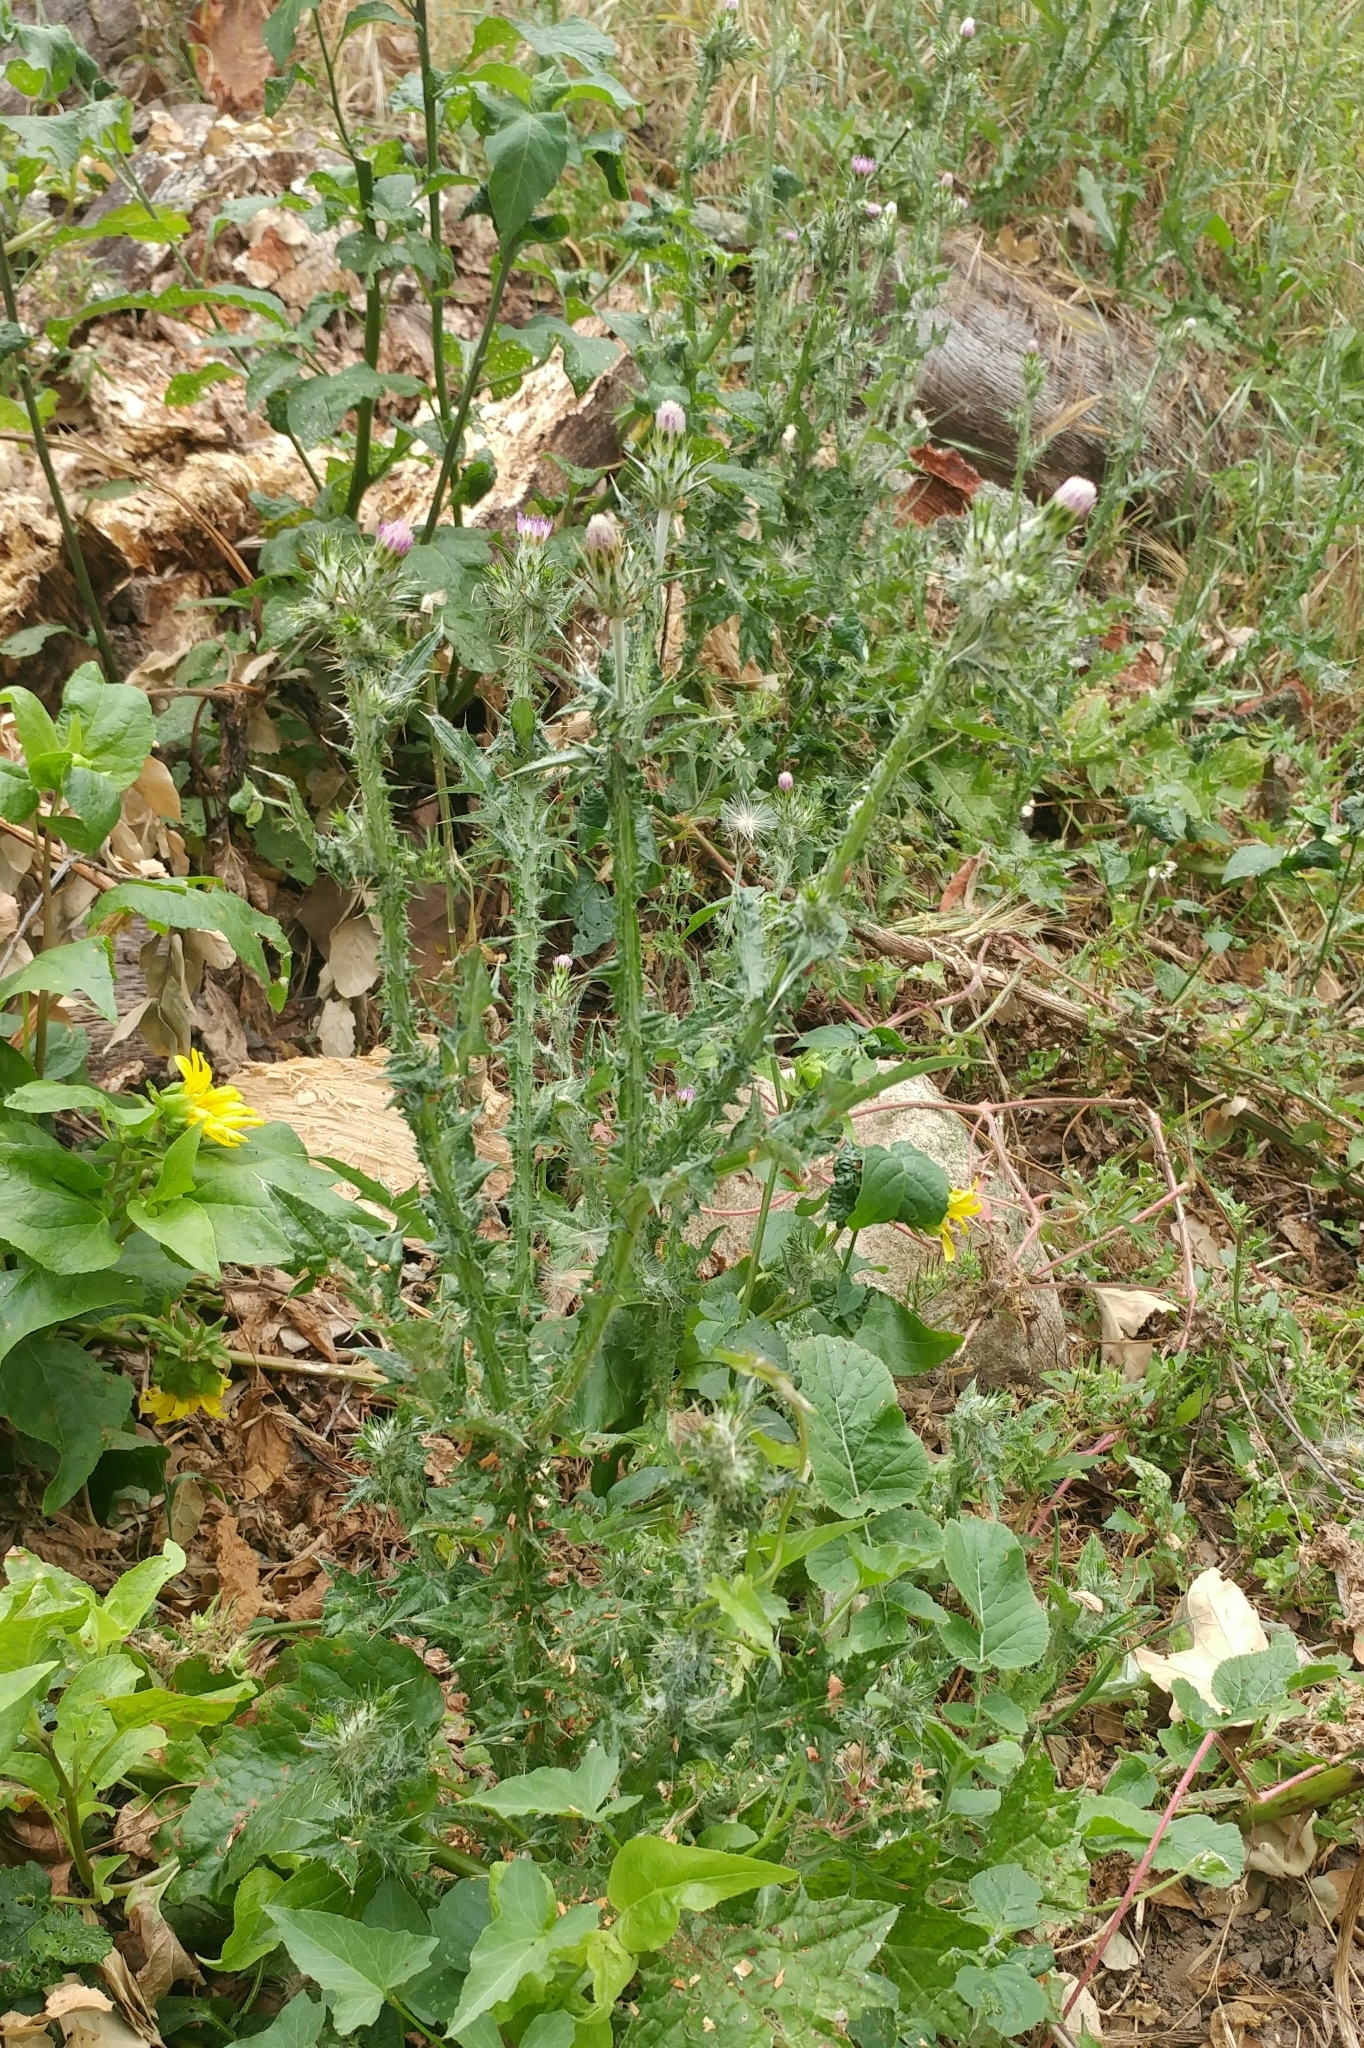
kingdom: Plantae
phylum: Tracheophyta
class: Magnoliopsida
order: Asterales
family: Asteraceae
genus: Carduus
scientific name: Carduus pycnocephalus
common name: Plymouth thistle
